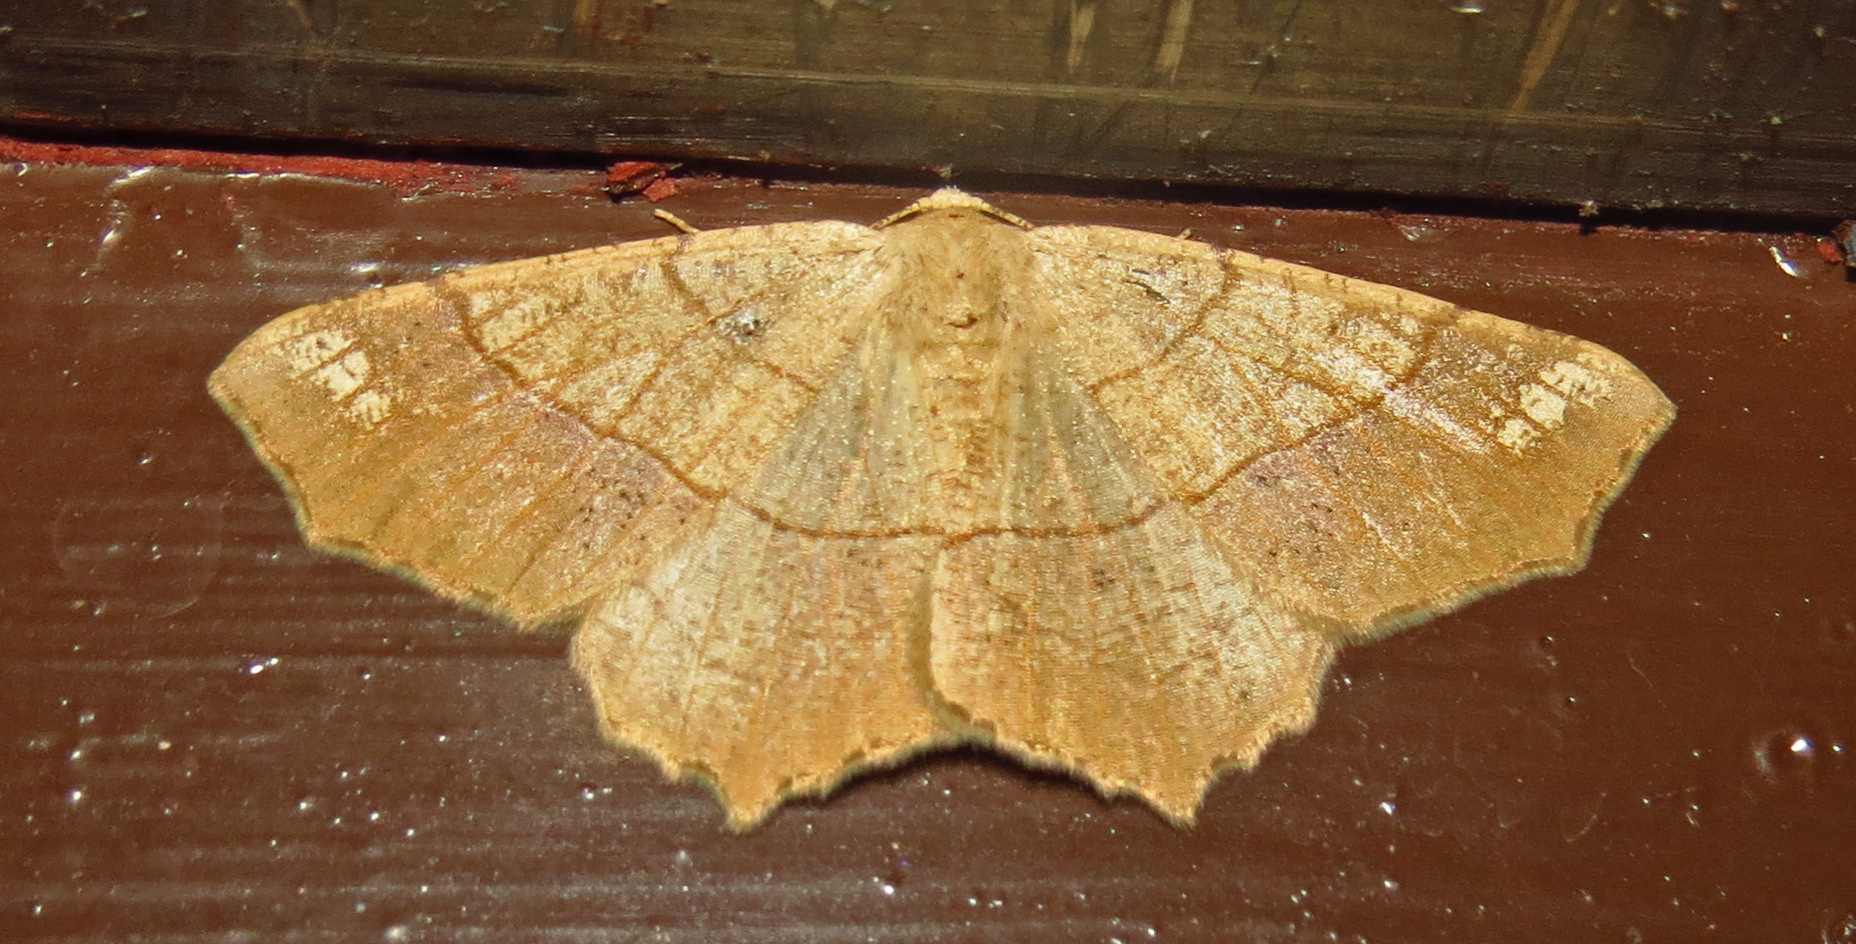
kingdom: Animalia
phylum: Arthropoda
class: Insecta
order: Lepidoptera
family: Geometridae
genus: Besma
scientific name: Besma quercivoraria
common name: Oak besma
